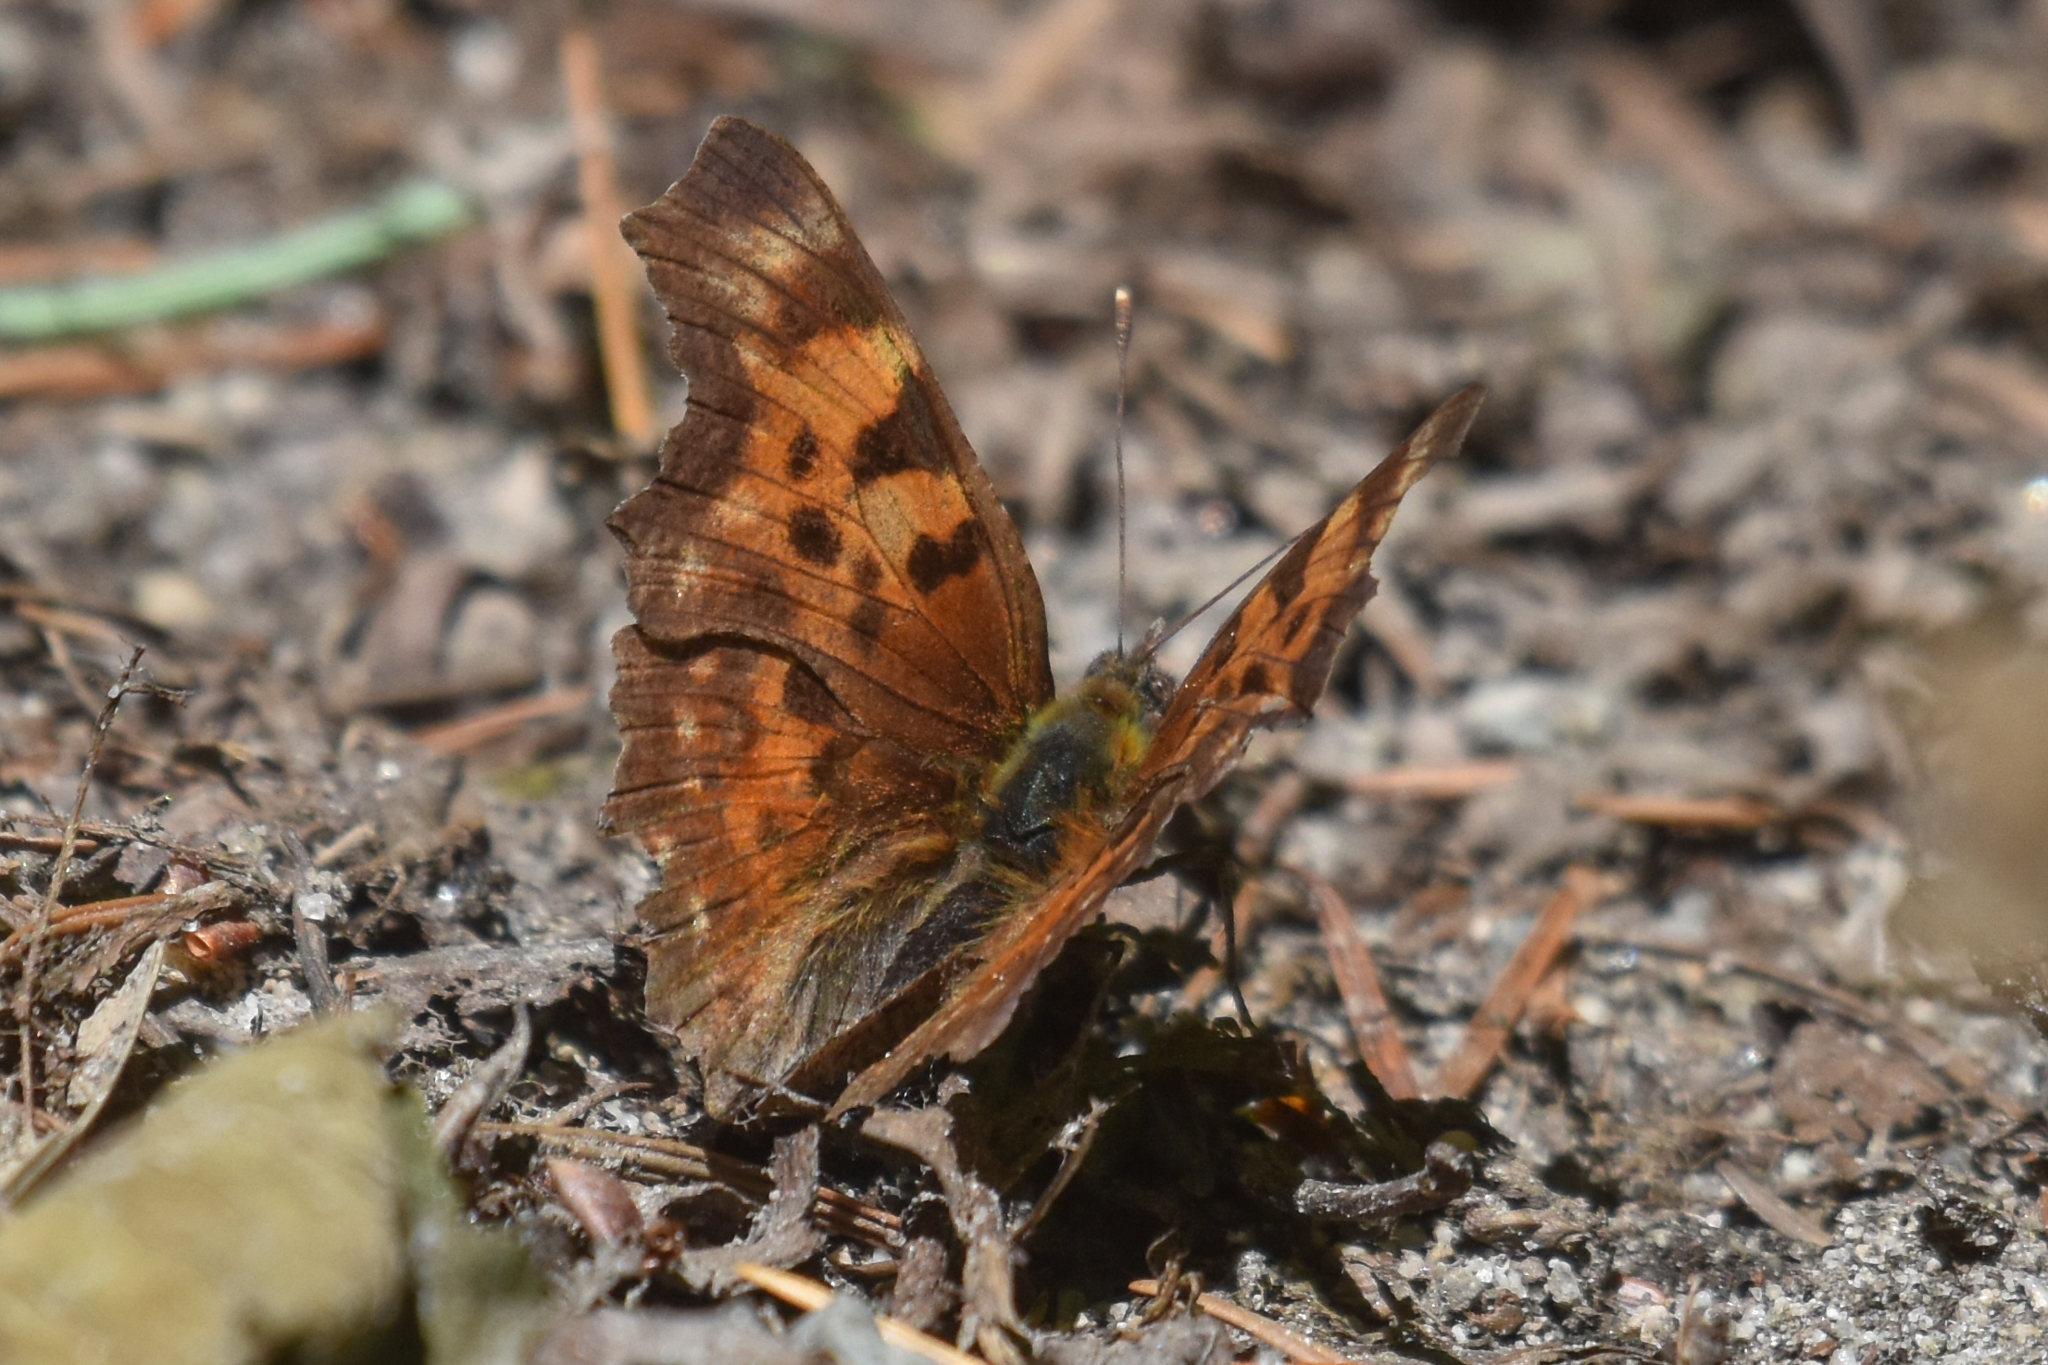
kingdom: Animalia
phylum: Arthropoda
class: Insecta
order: Lepidoptera
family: Nymphalidae
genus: Polygonia
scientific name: Polygonia faunus
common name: Green comma
